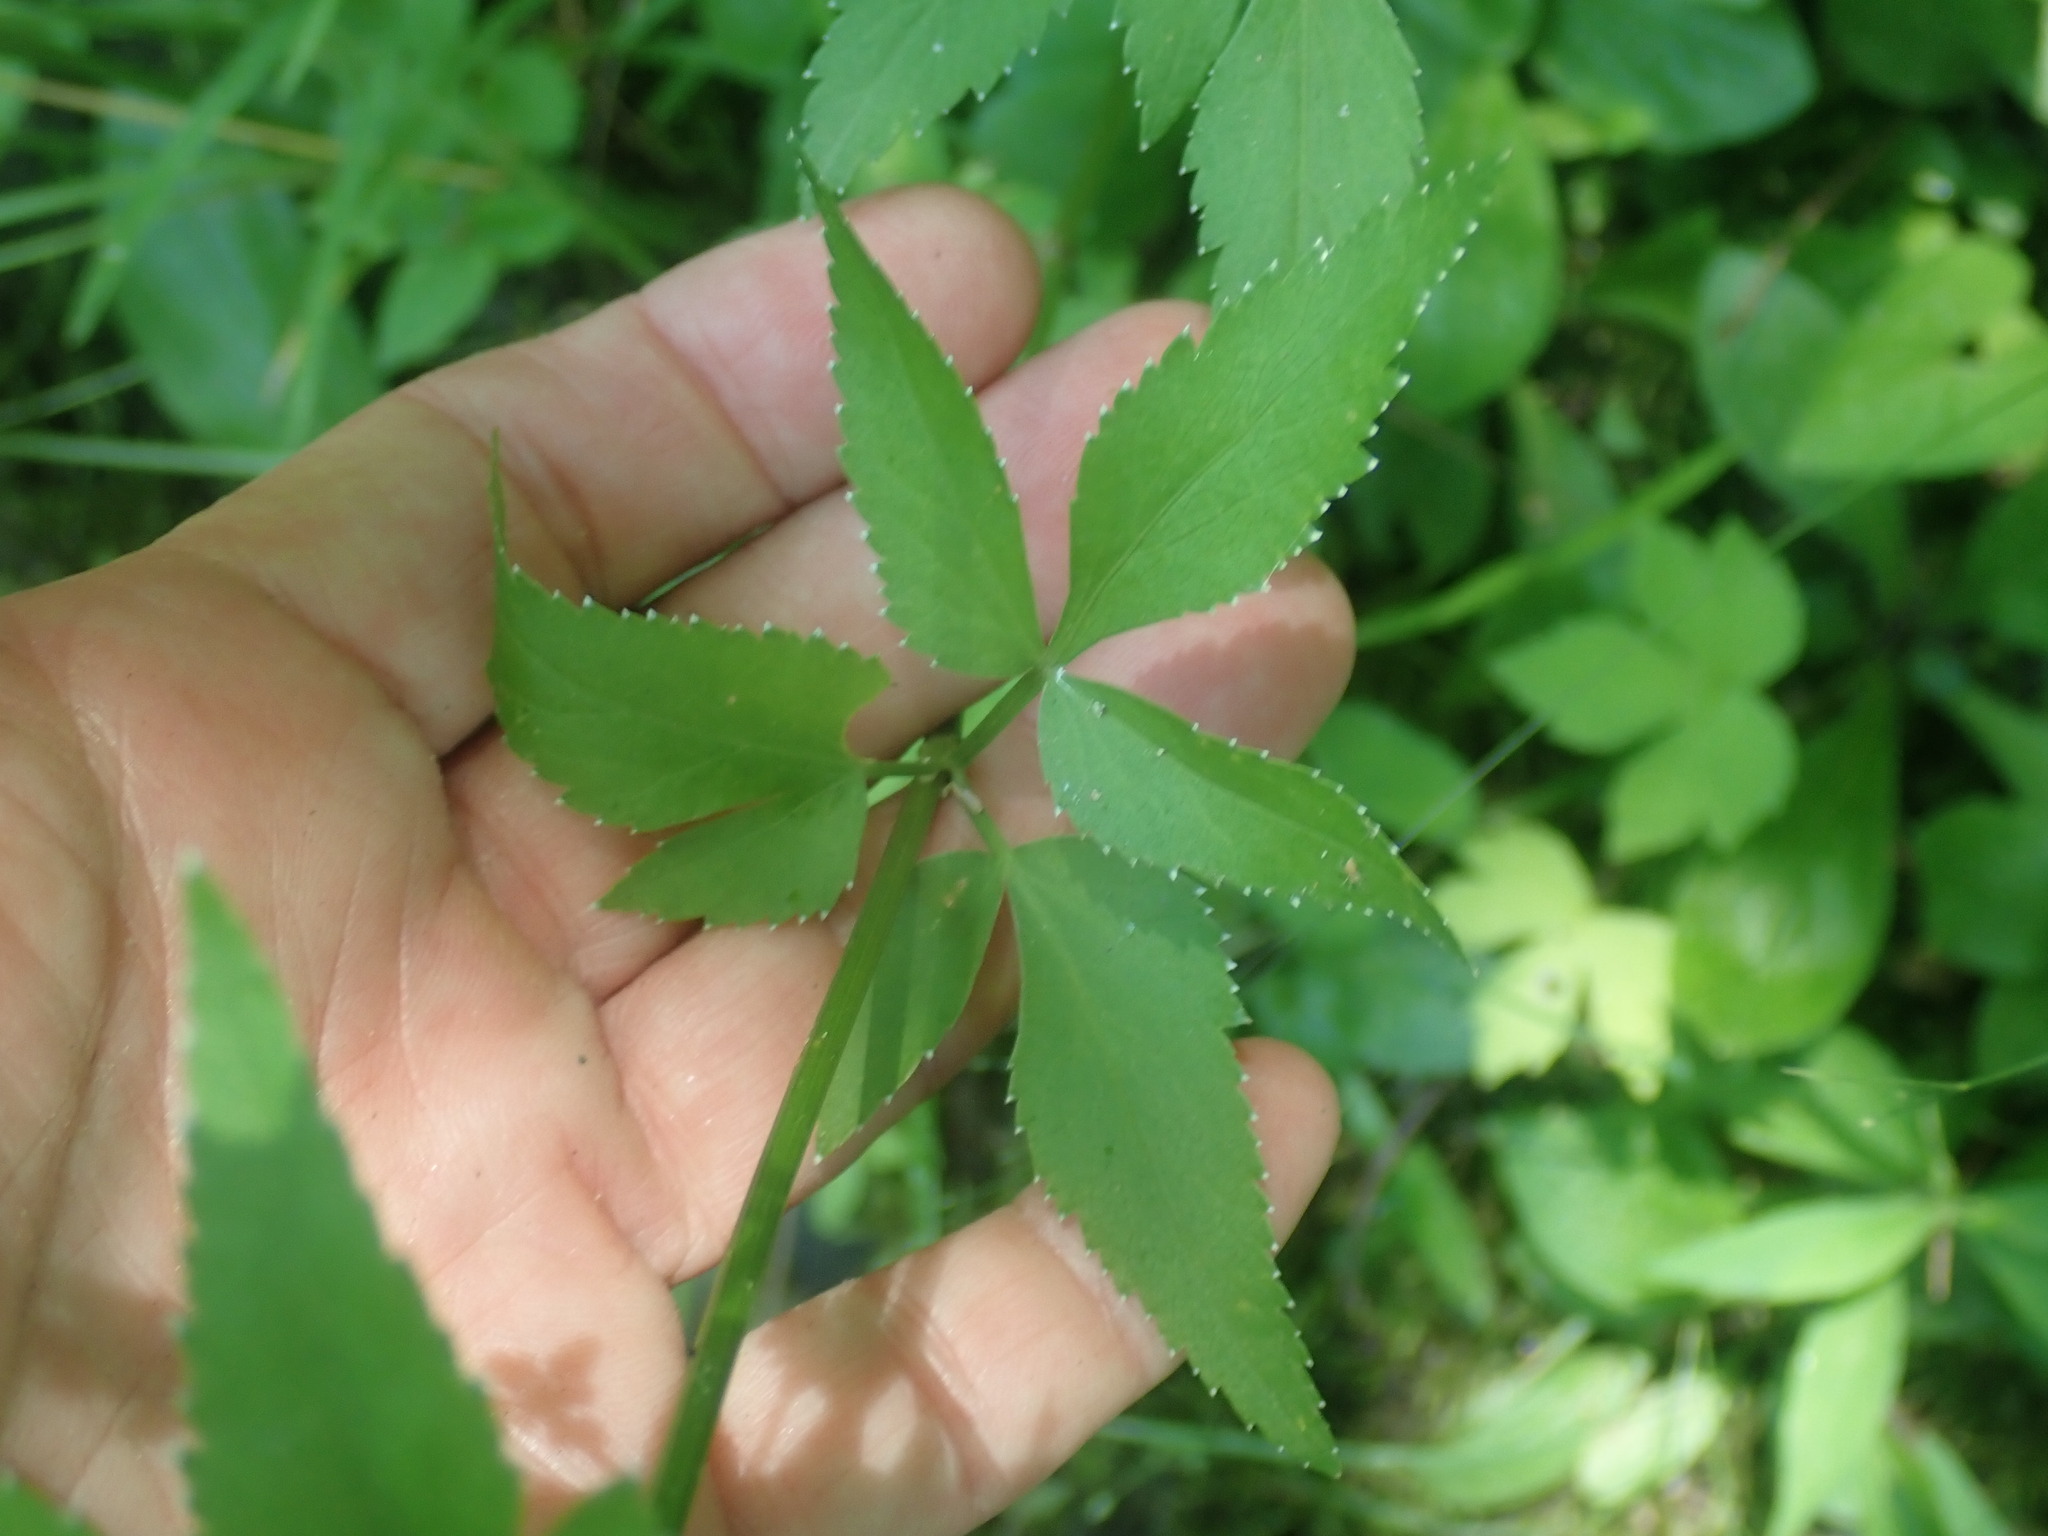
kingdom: Plantae
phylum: Tracheophyta
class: Magnoliopsida
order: Apiales
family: Apiaceae
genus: Zizia
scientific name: Zizia aurea
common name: Golden alexanders
